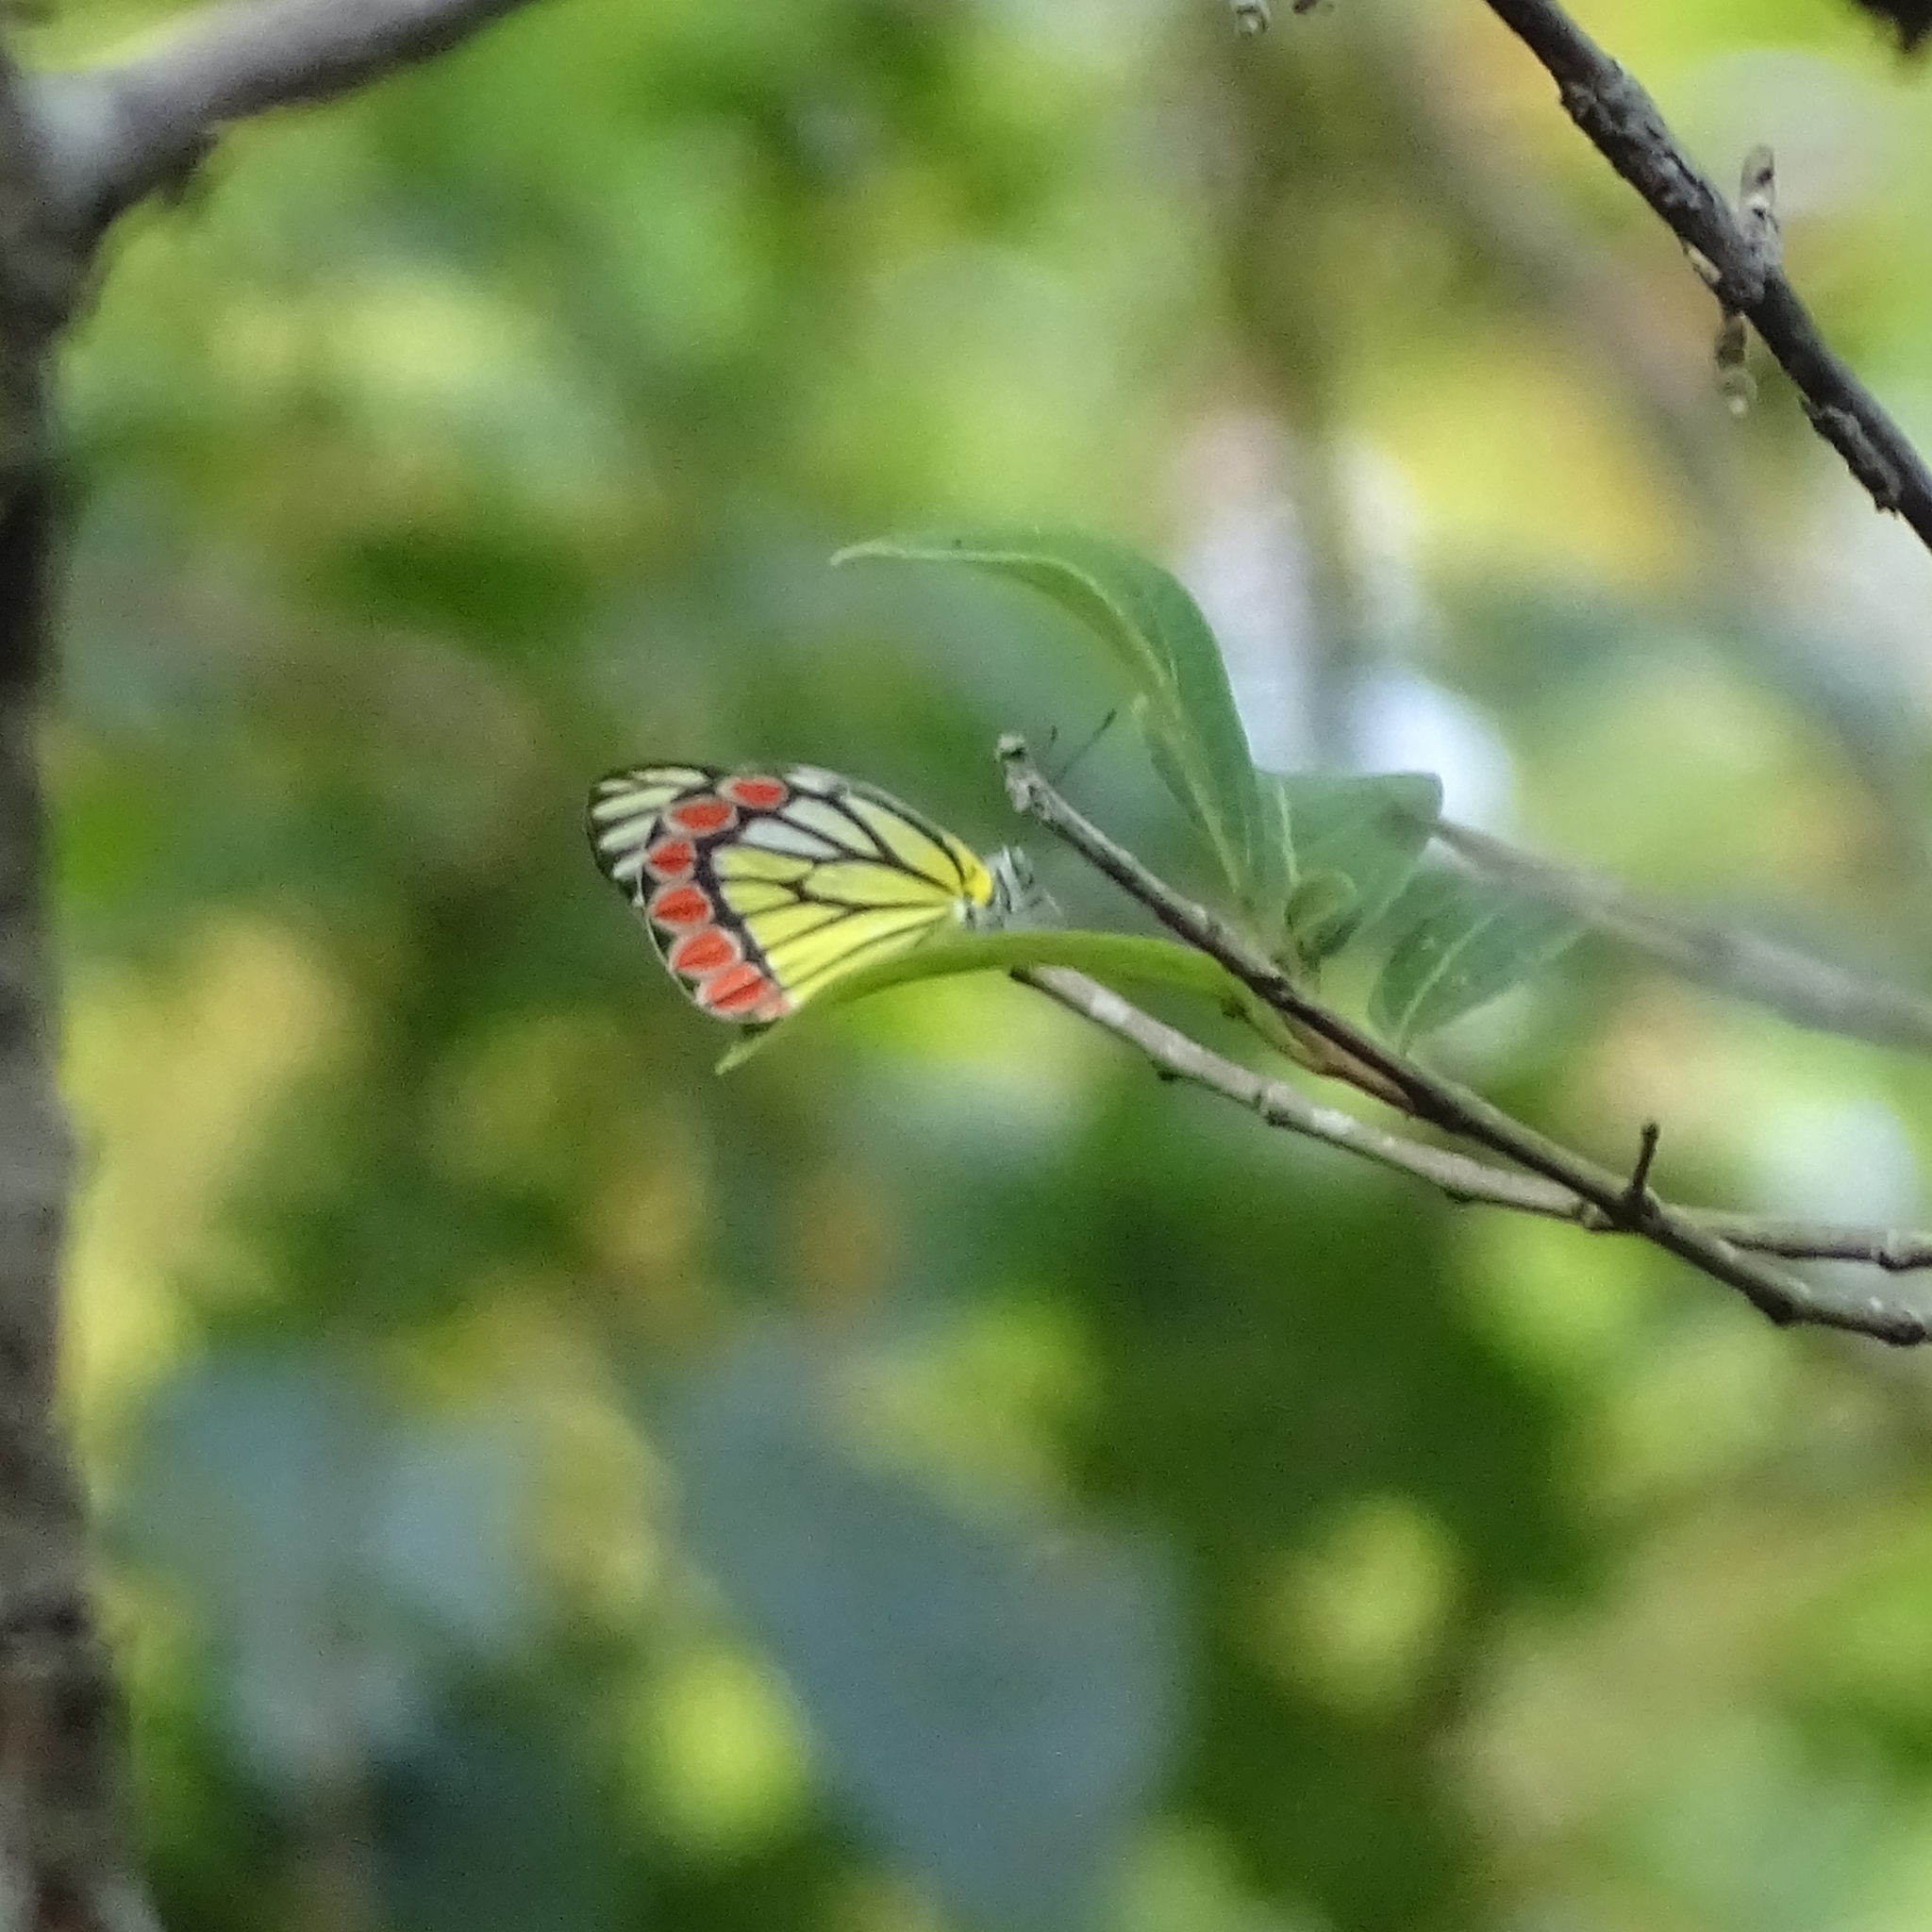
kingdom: Animalia
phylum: Arthropoda
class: Insecta
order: Lepidoptera
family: Pieridae
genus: Delias
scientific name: Delias eucharis
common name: Common jezebel
